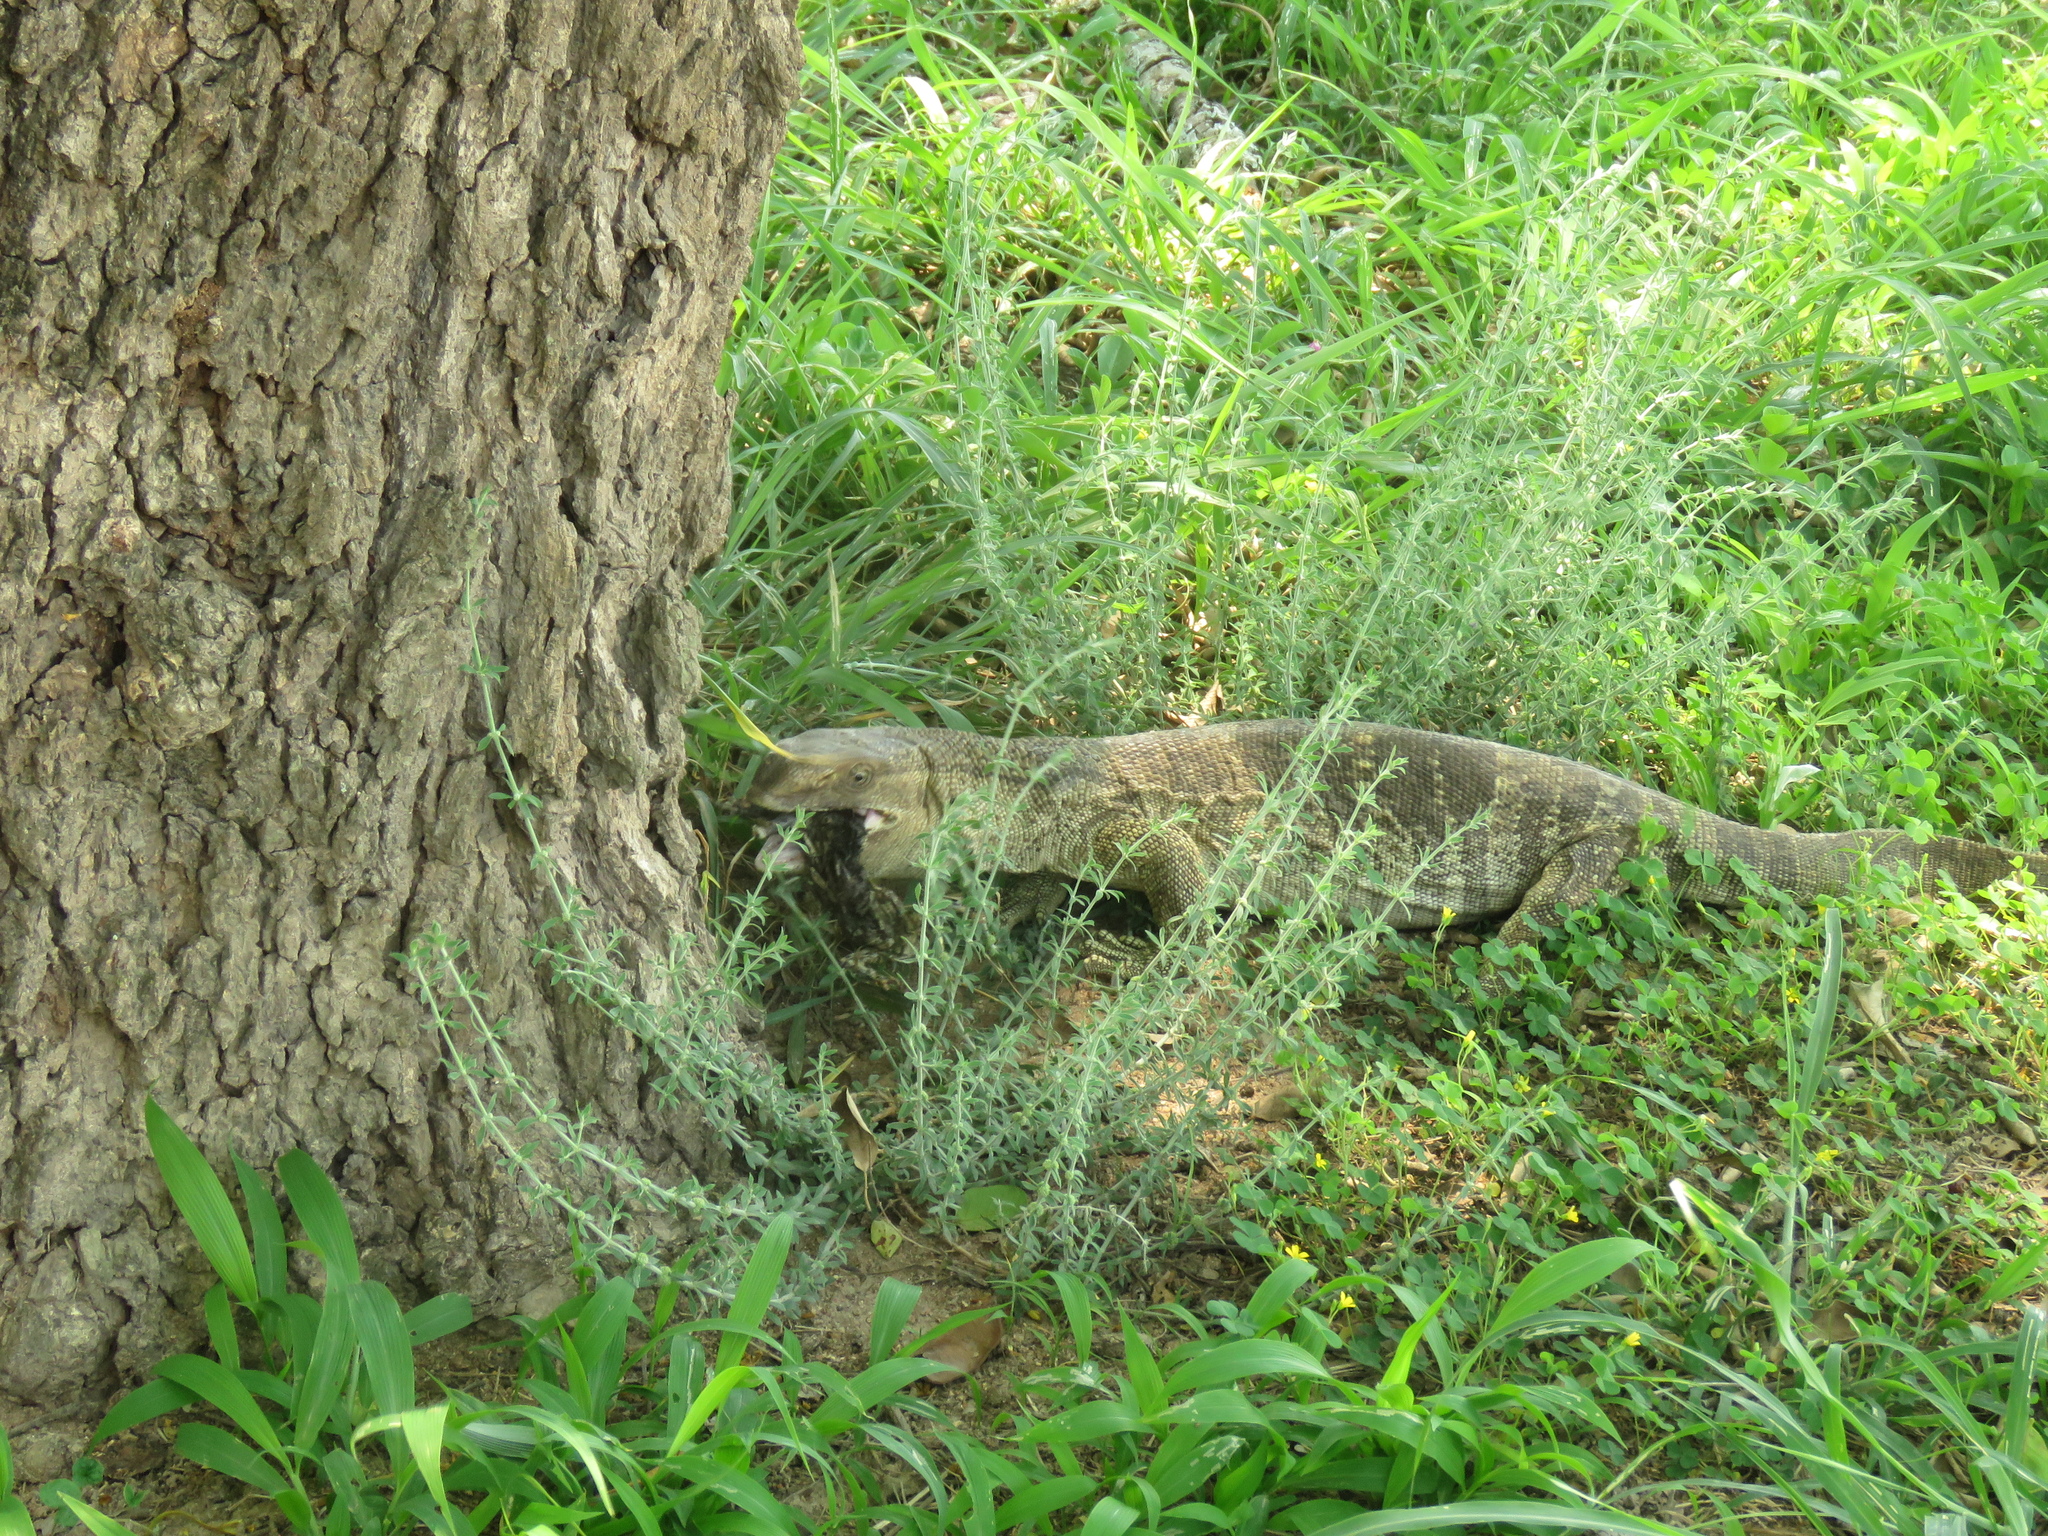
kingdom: Animalia
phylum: Chordata
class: Squamata
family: Varanidae
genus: Varanus
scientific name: Varanus albigularis
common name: White-throated monitor
